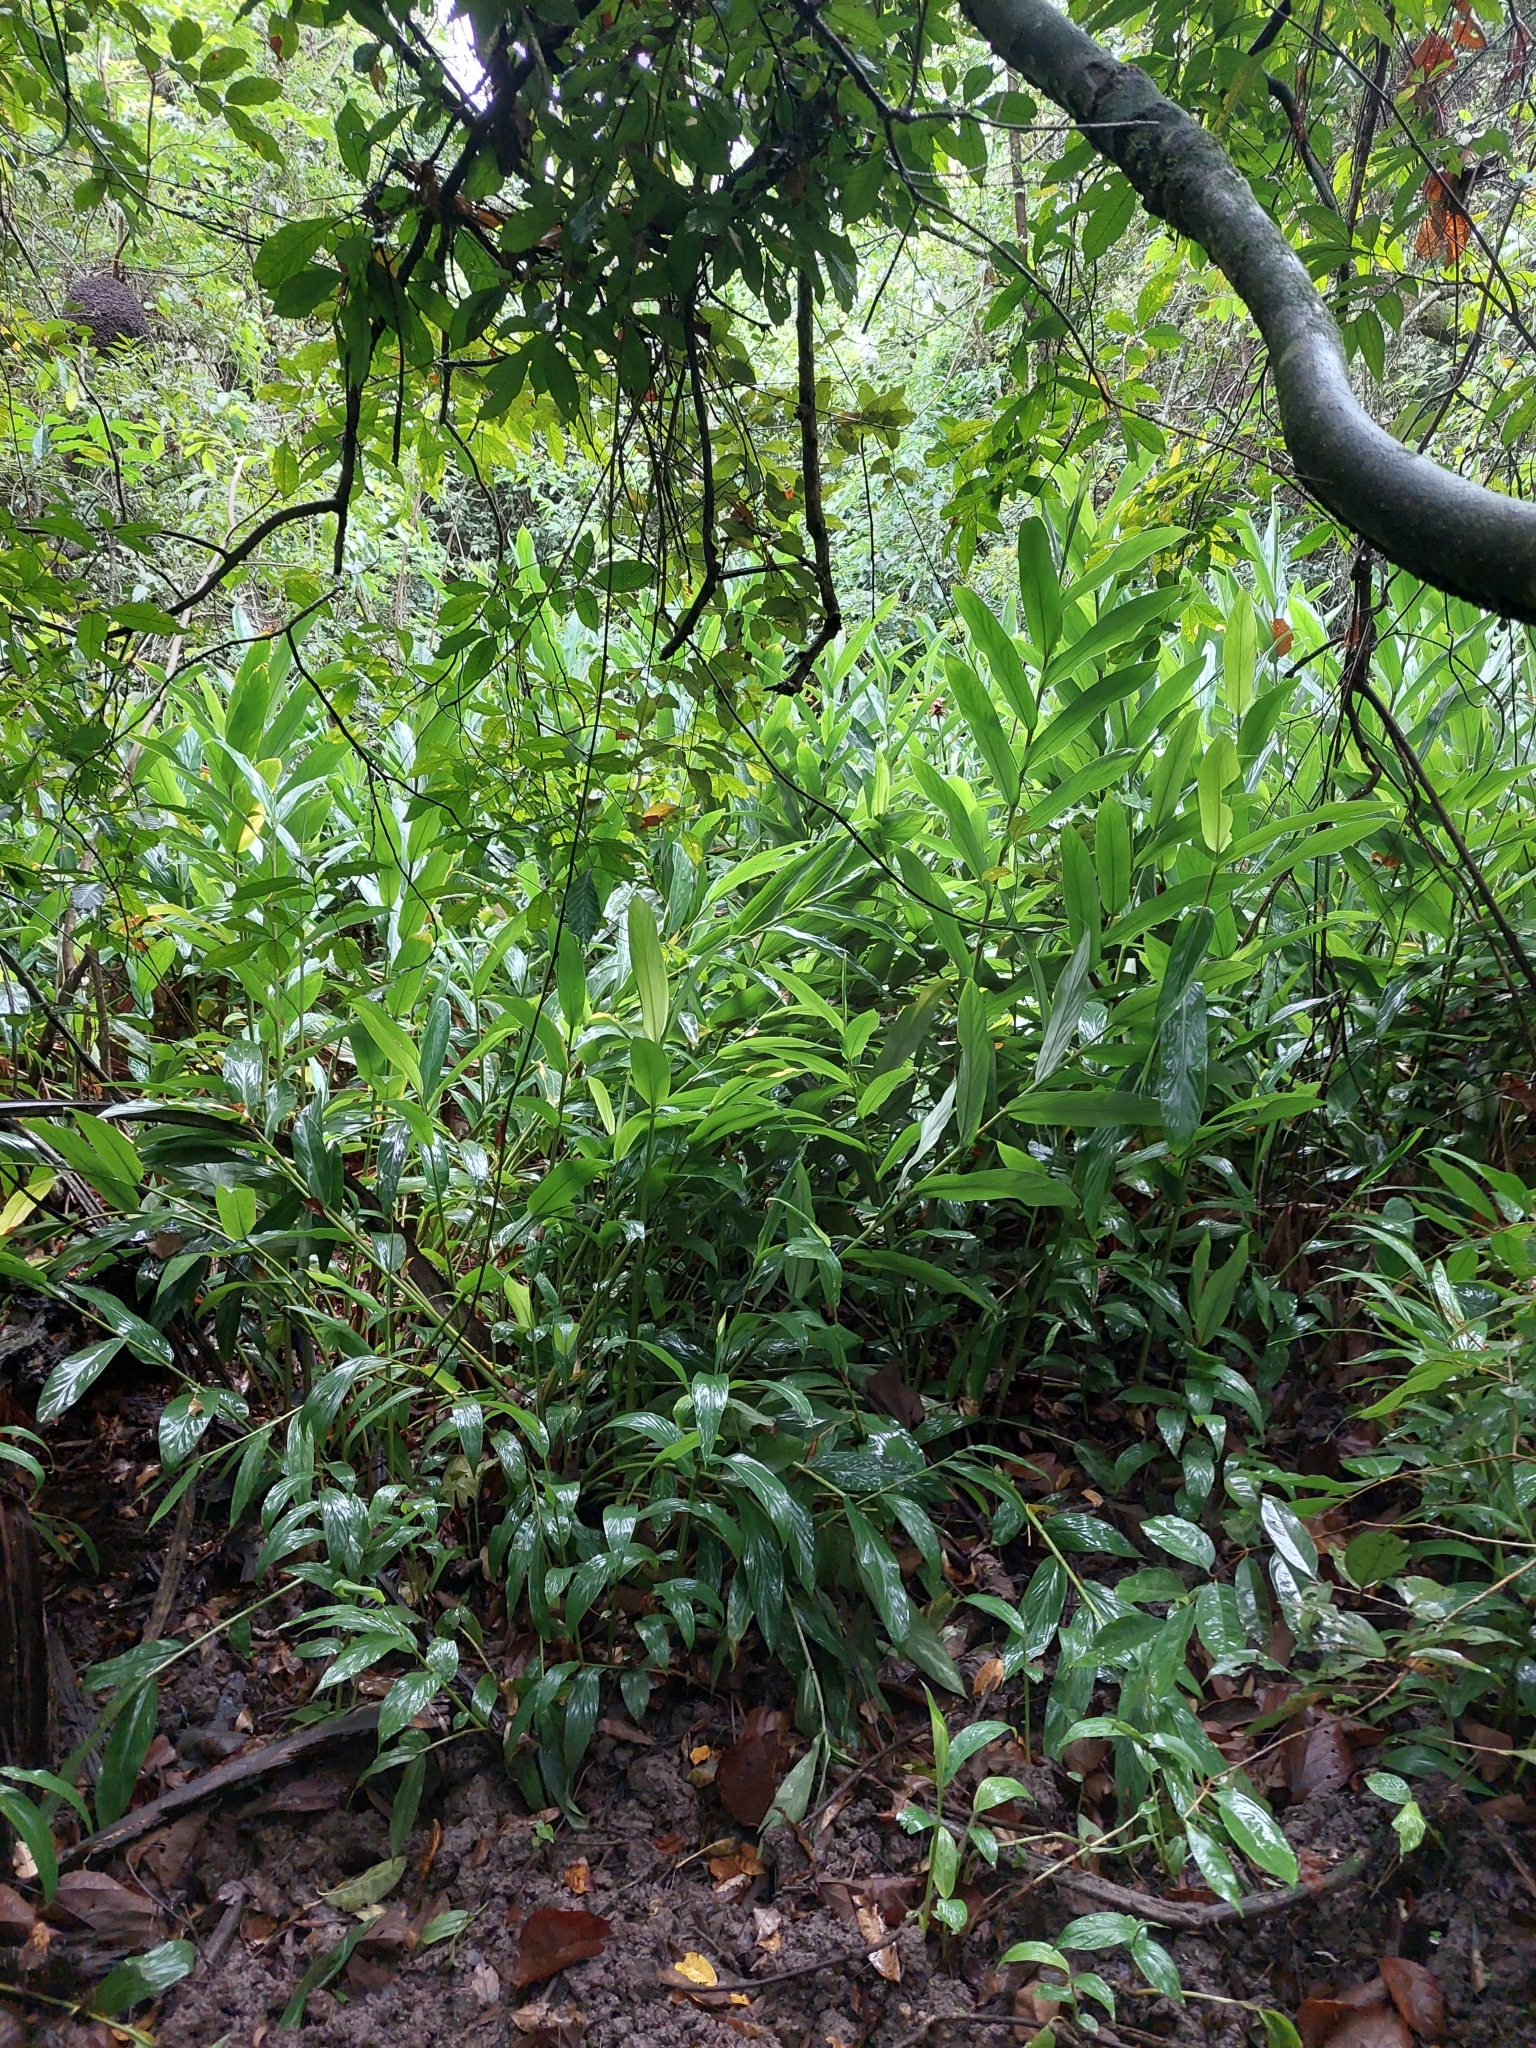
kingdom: Plantae
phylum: Tracheophyta
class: Liliopsida
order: Zingiberales
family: Zingiberaceae
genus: Hedychium
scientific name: Hedychium coronarium
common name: White garland-lily
